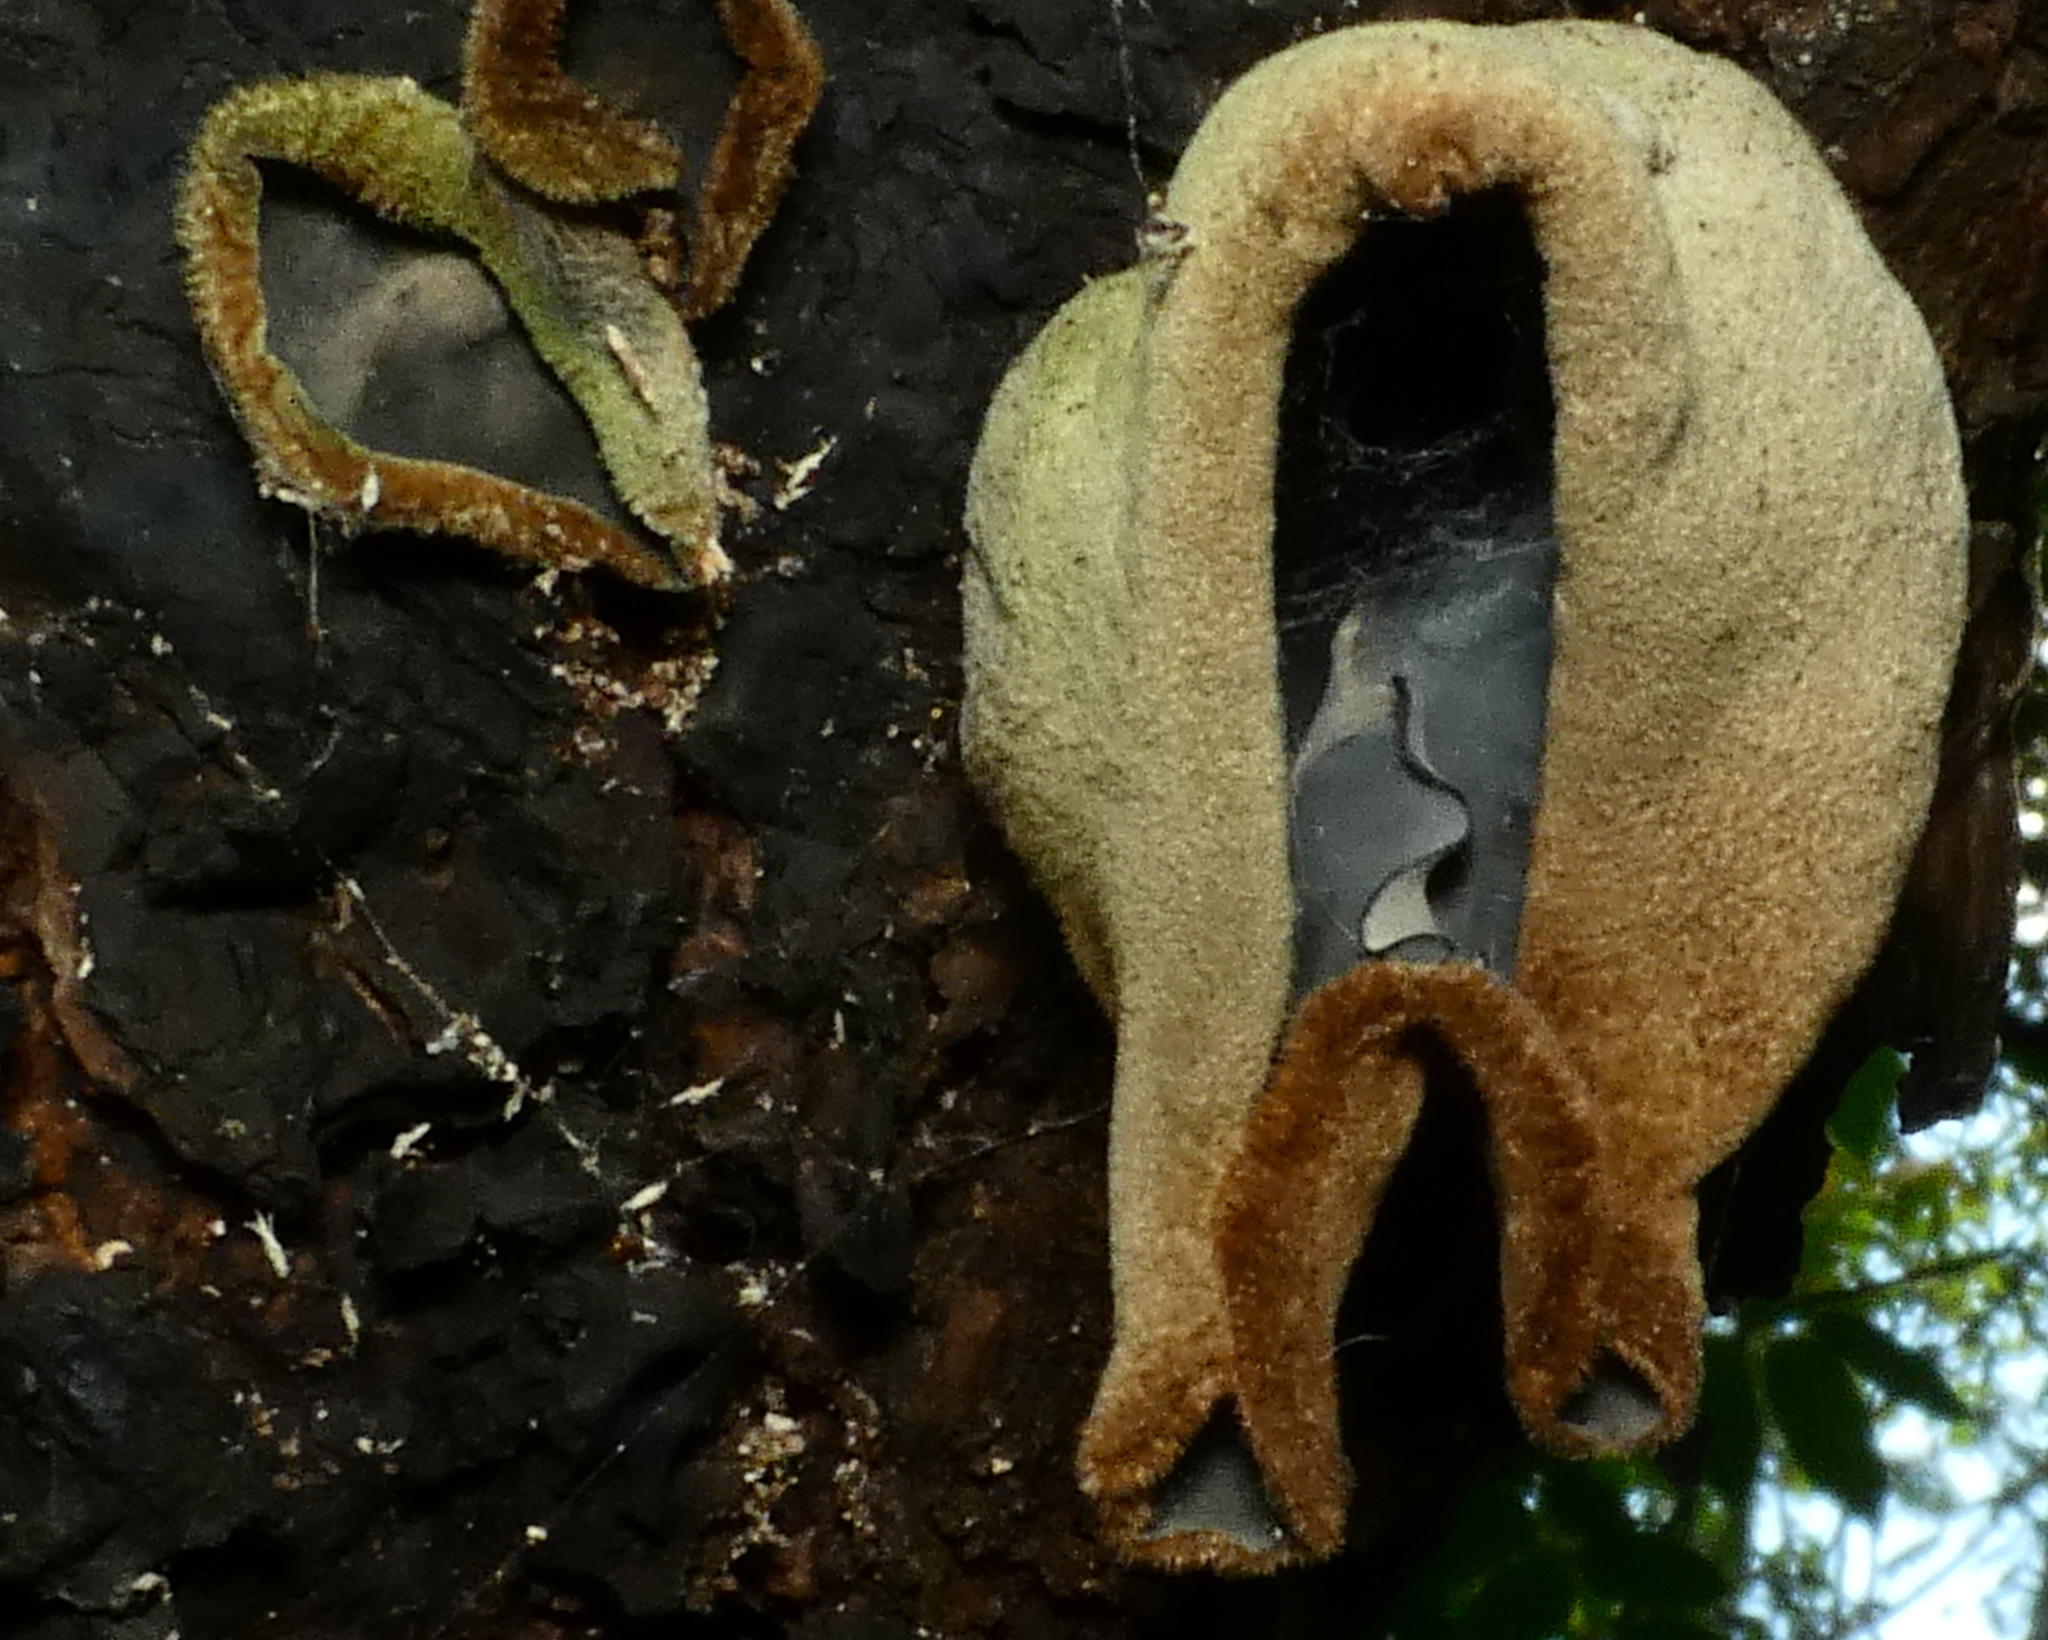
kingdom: Fungi
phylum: Basidiomycota
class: Agaricomycetes
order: Auriculariales
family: Auriculariaceae
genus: Auricularia
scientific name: Auricularia nigricans
